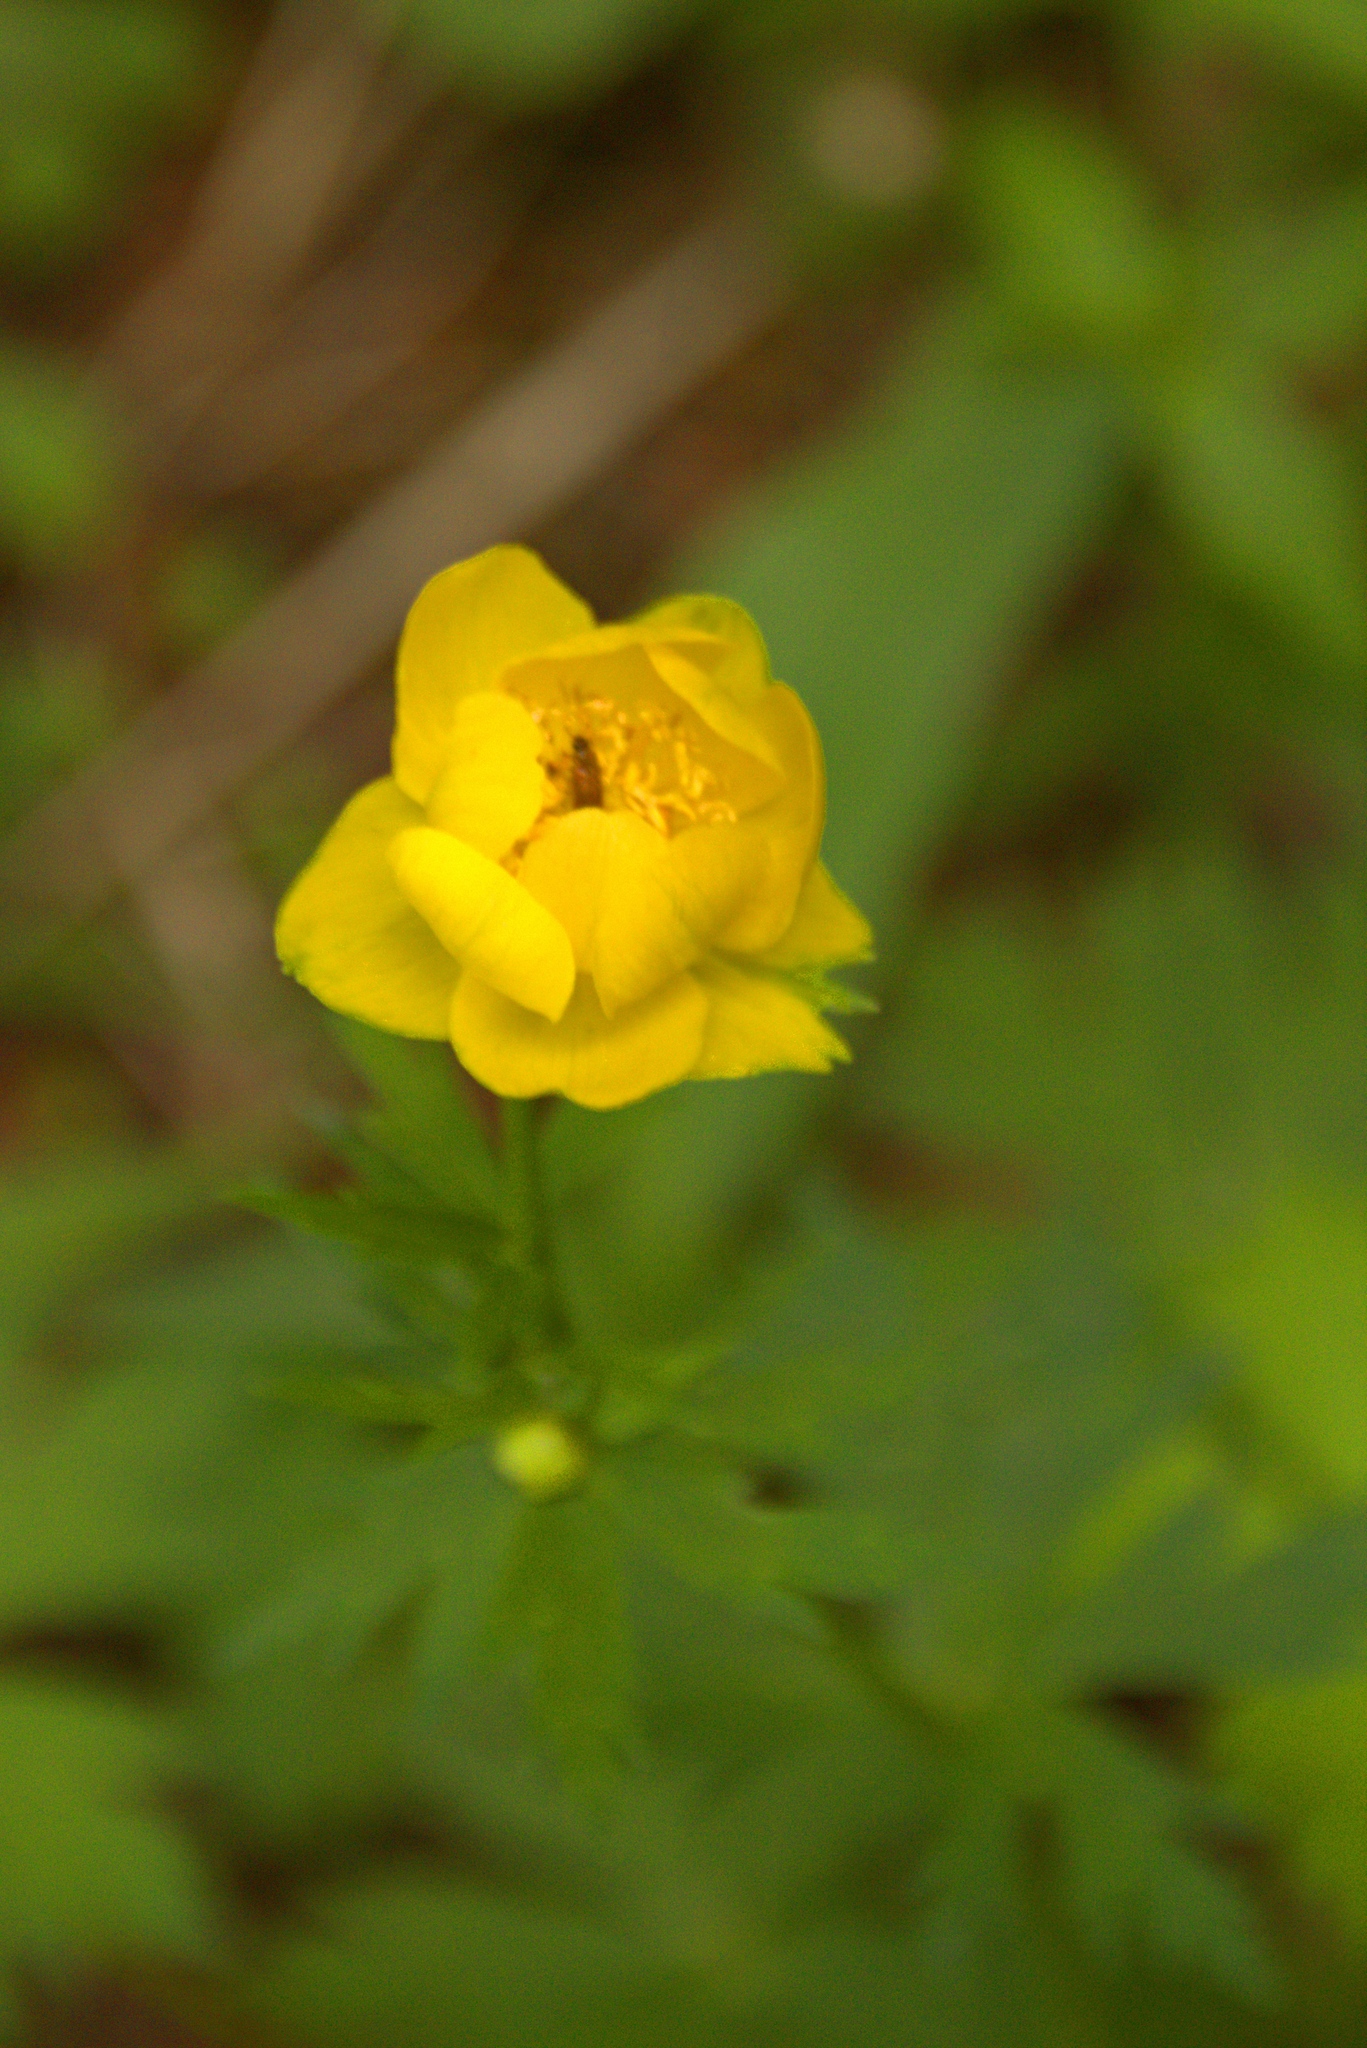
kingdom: Plantae
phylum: Tracheophyta
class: Magnoliopsida
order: Ranunculales
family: Ranunculaceae
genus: Trollius
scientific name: Trollius europaeus
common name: European globeflower
